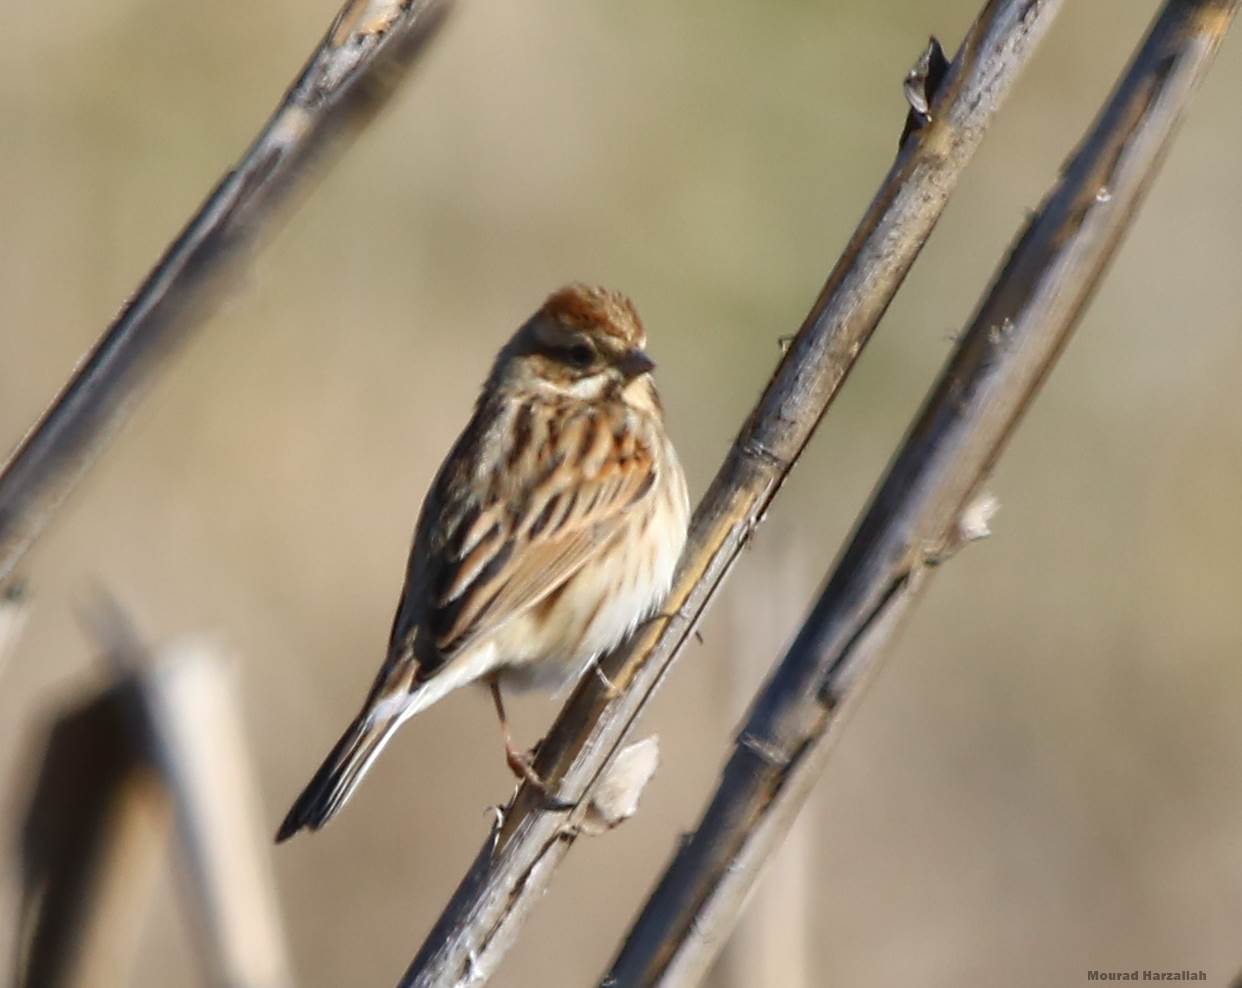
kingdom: Animalia
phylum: Chordata
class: Aves
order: Passeriformes
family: Emberizidae
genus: Emberiza
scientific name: Emberiza schoeniclus
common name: Reed bunting
